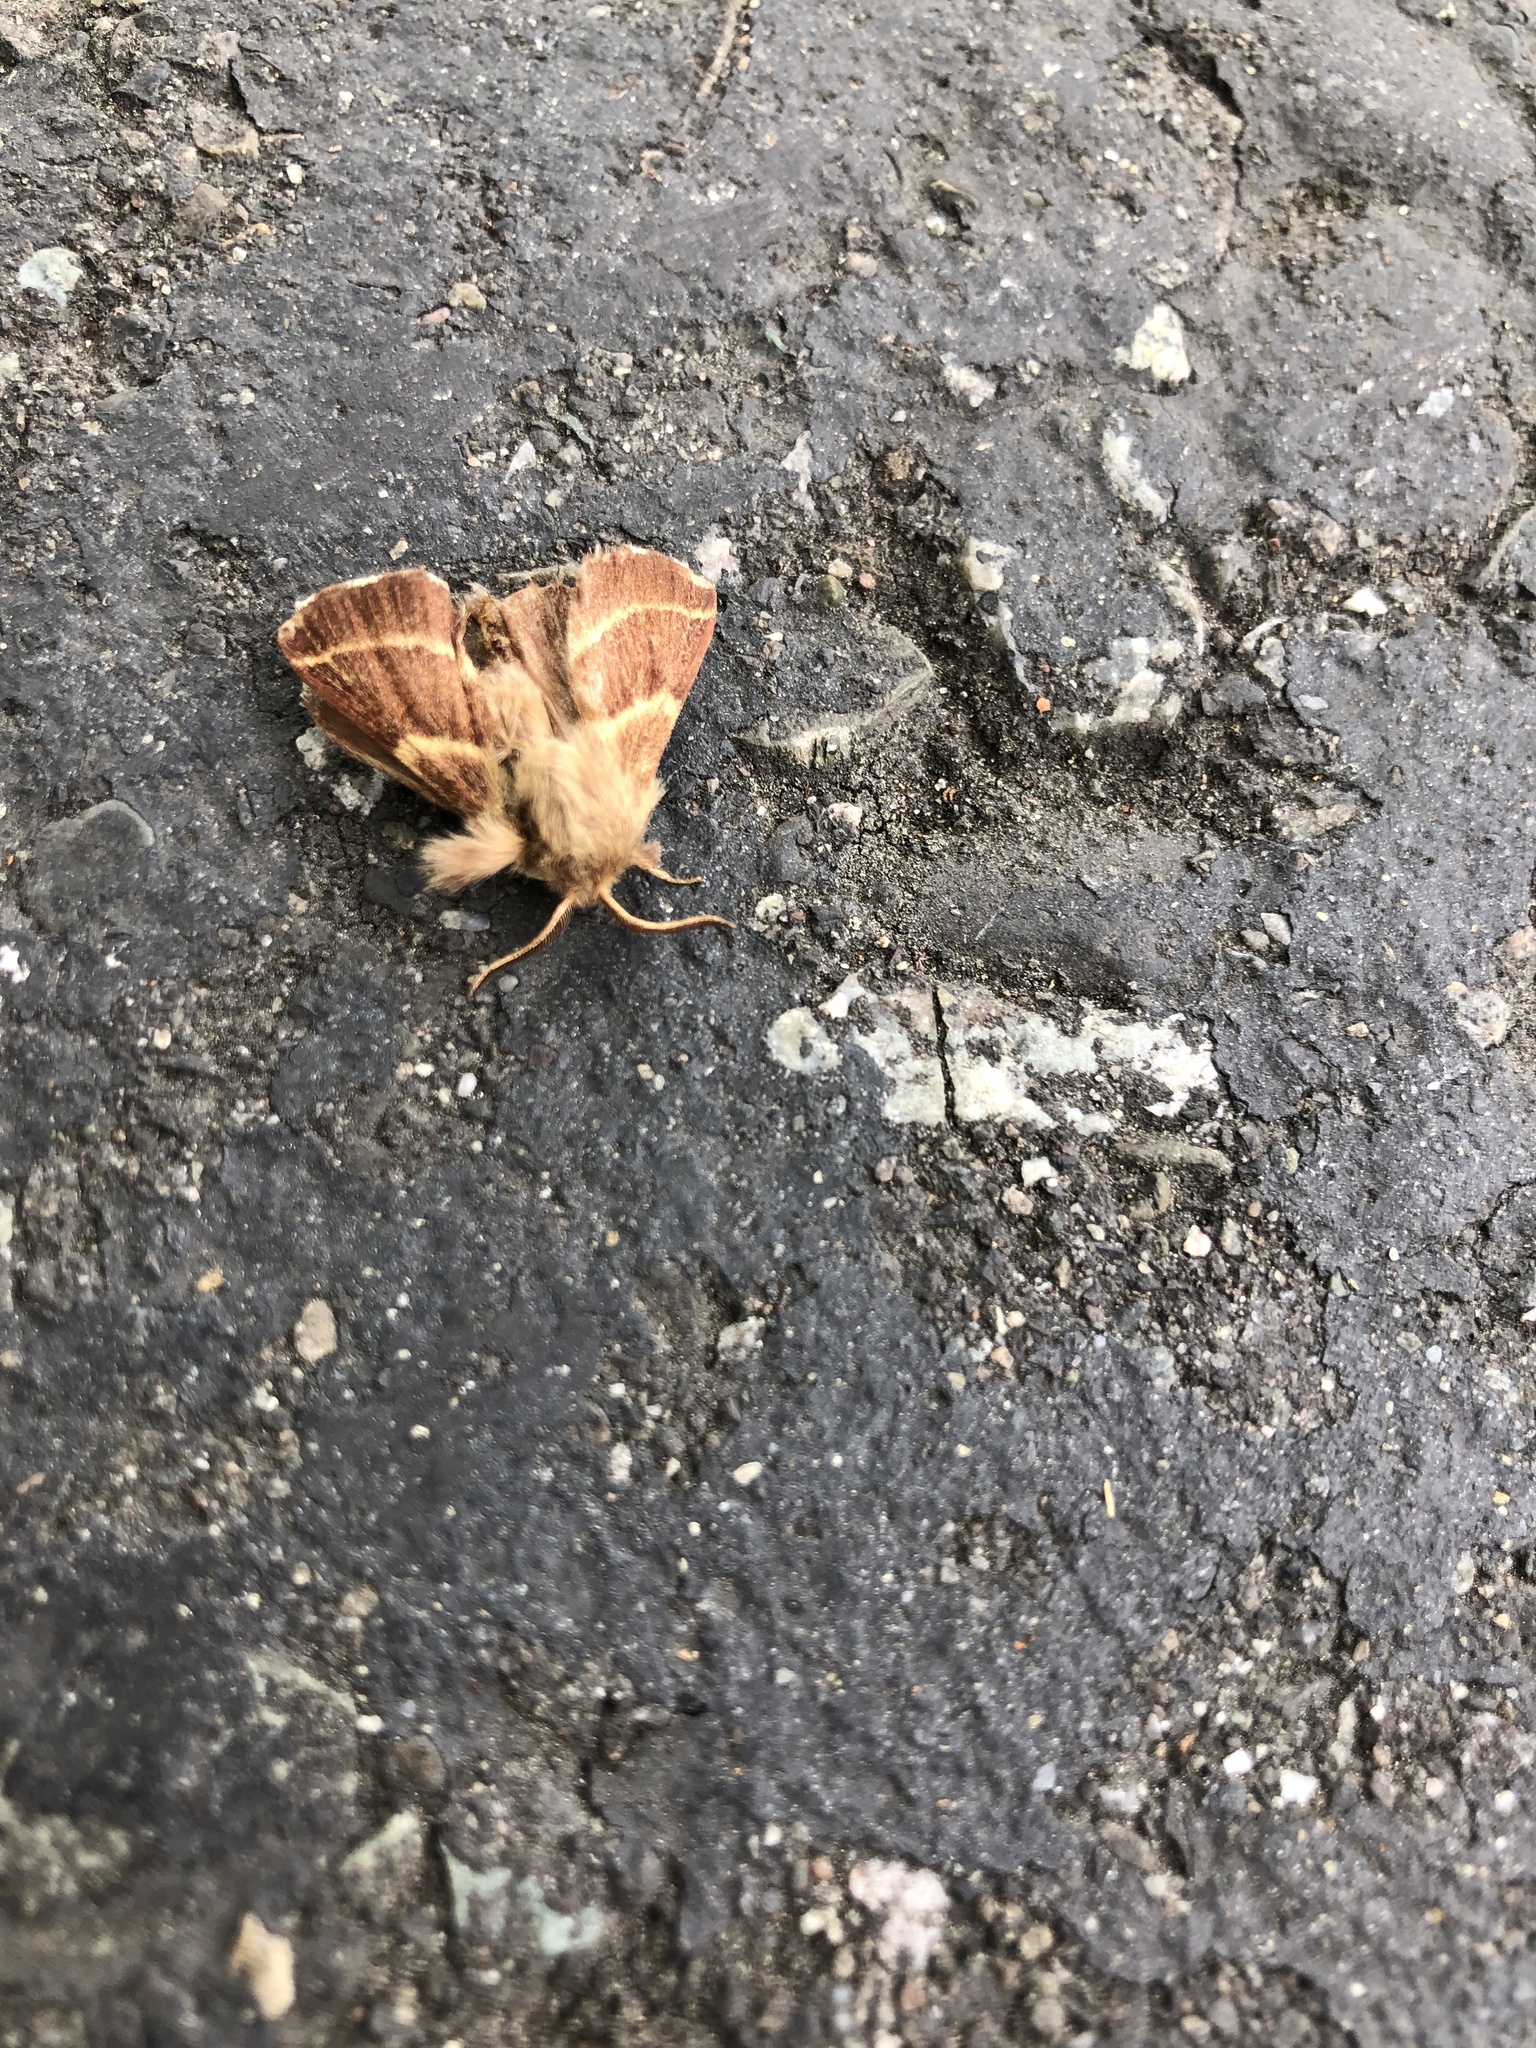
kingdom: Animalia
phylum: Arthropoda
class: Insecta
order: Lepidoptera
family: Lasiocampidae
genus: Malacosoma
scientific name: Malacosoma californica
